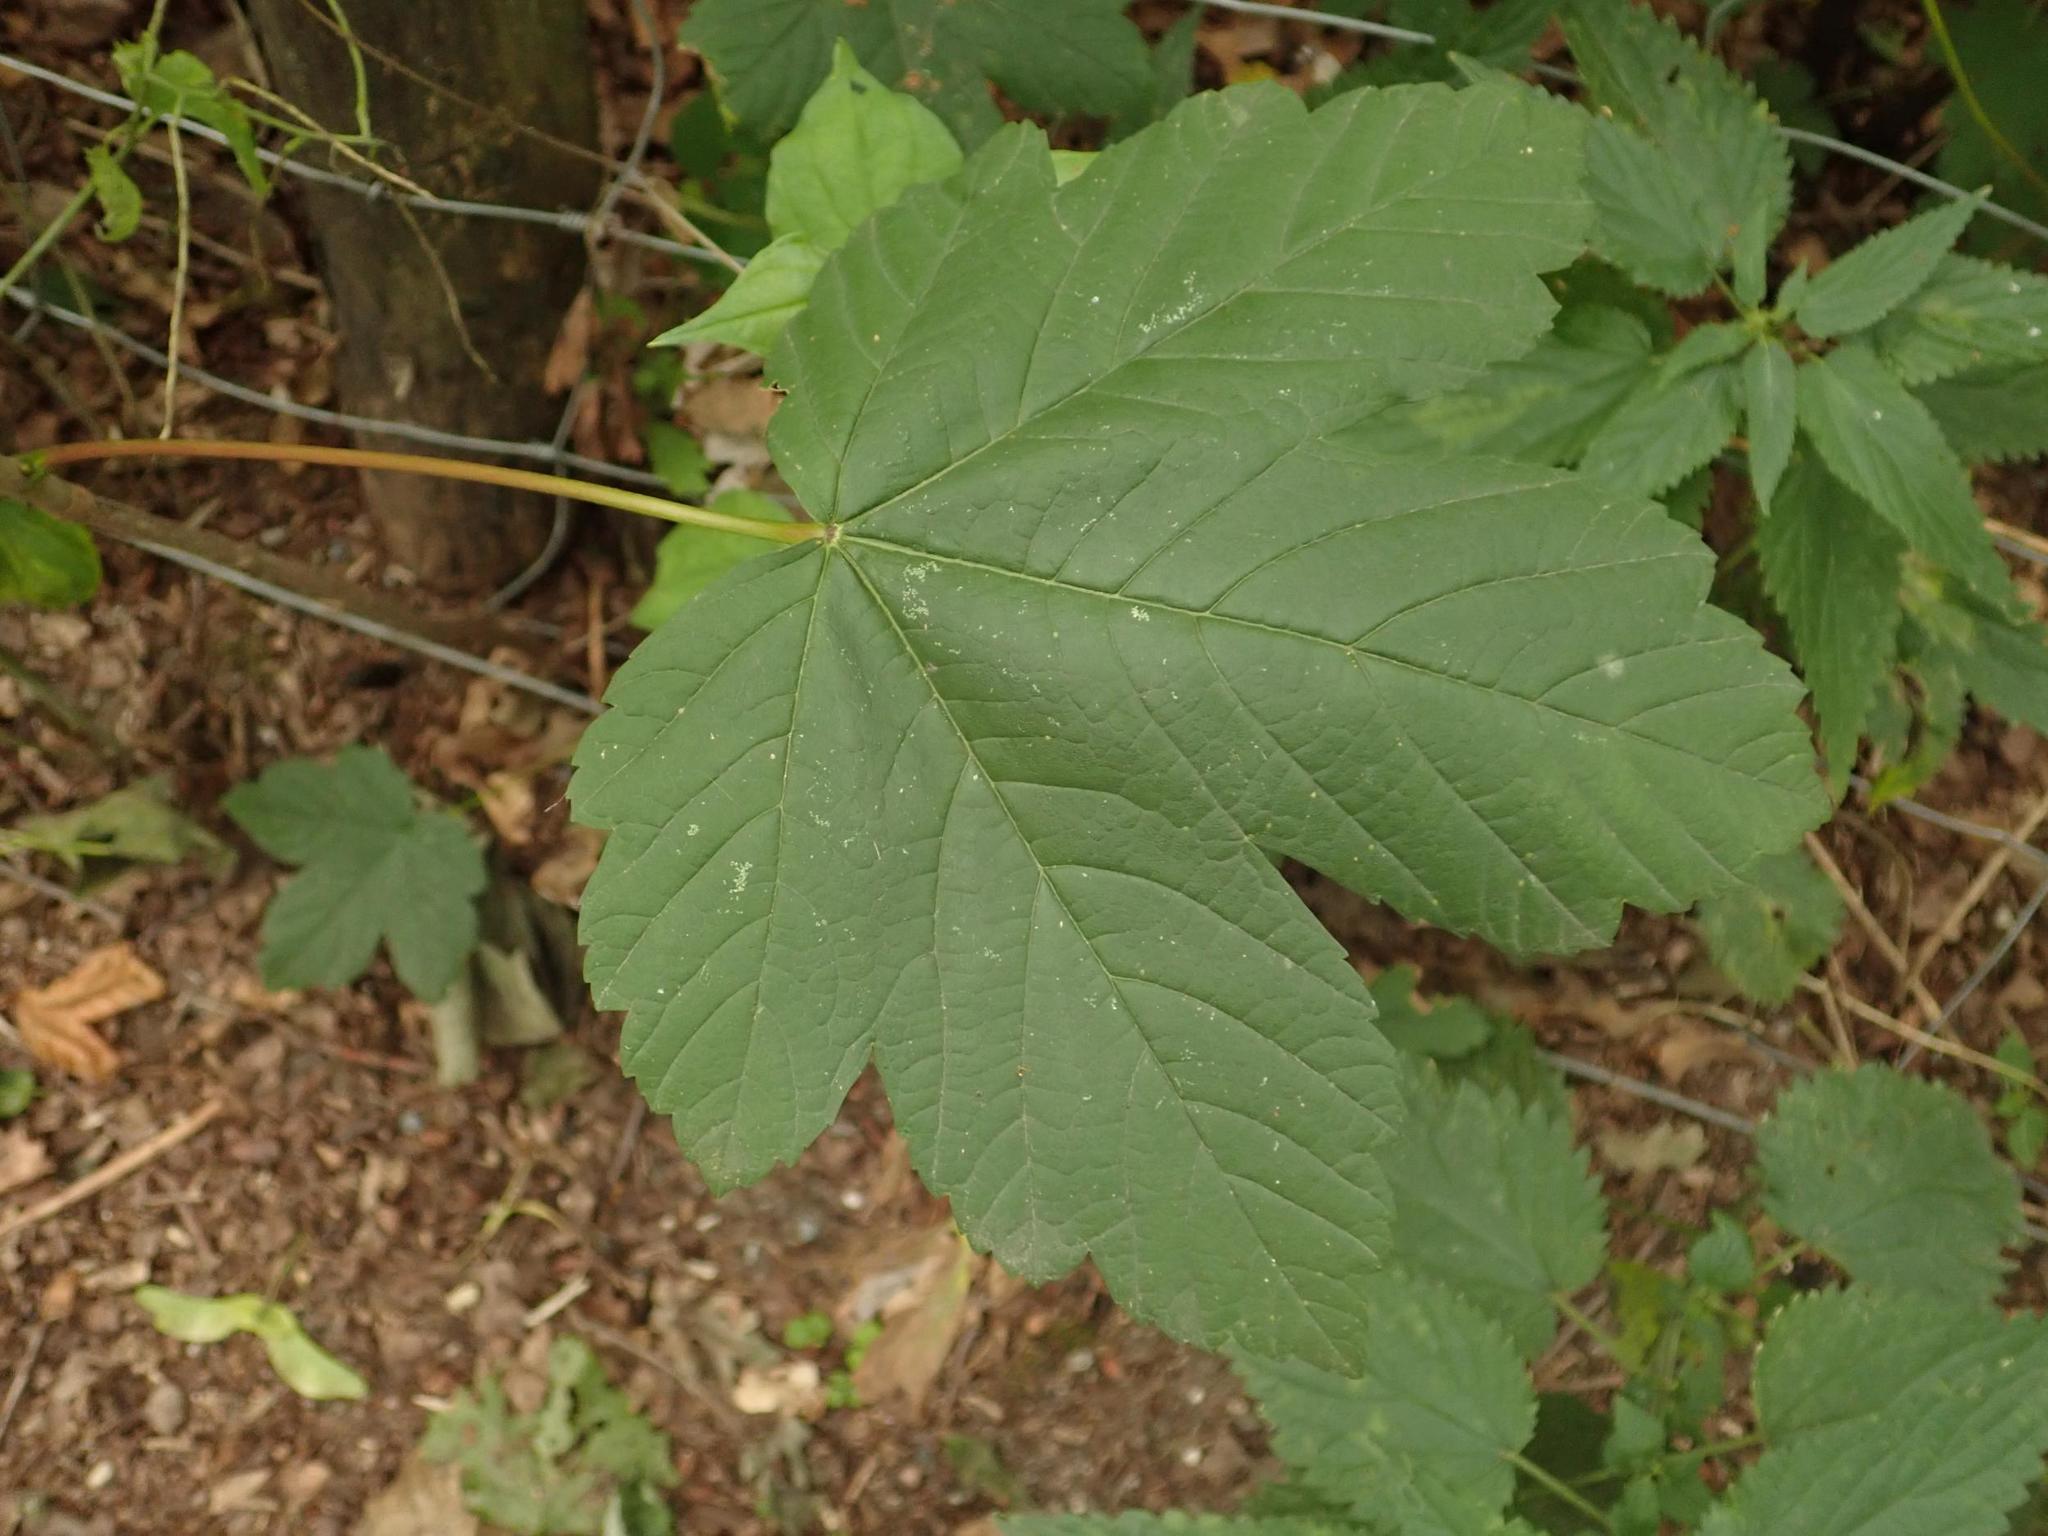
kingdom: Plantae
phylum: Tracheophyta
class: Magnoliopsida
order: Sapindales
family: Sapindaceae
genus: Acer
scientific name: Acer pseudoplatanus
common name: Sycamore
